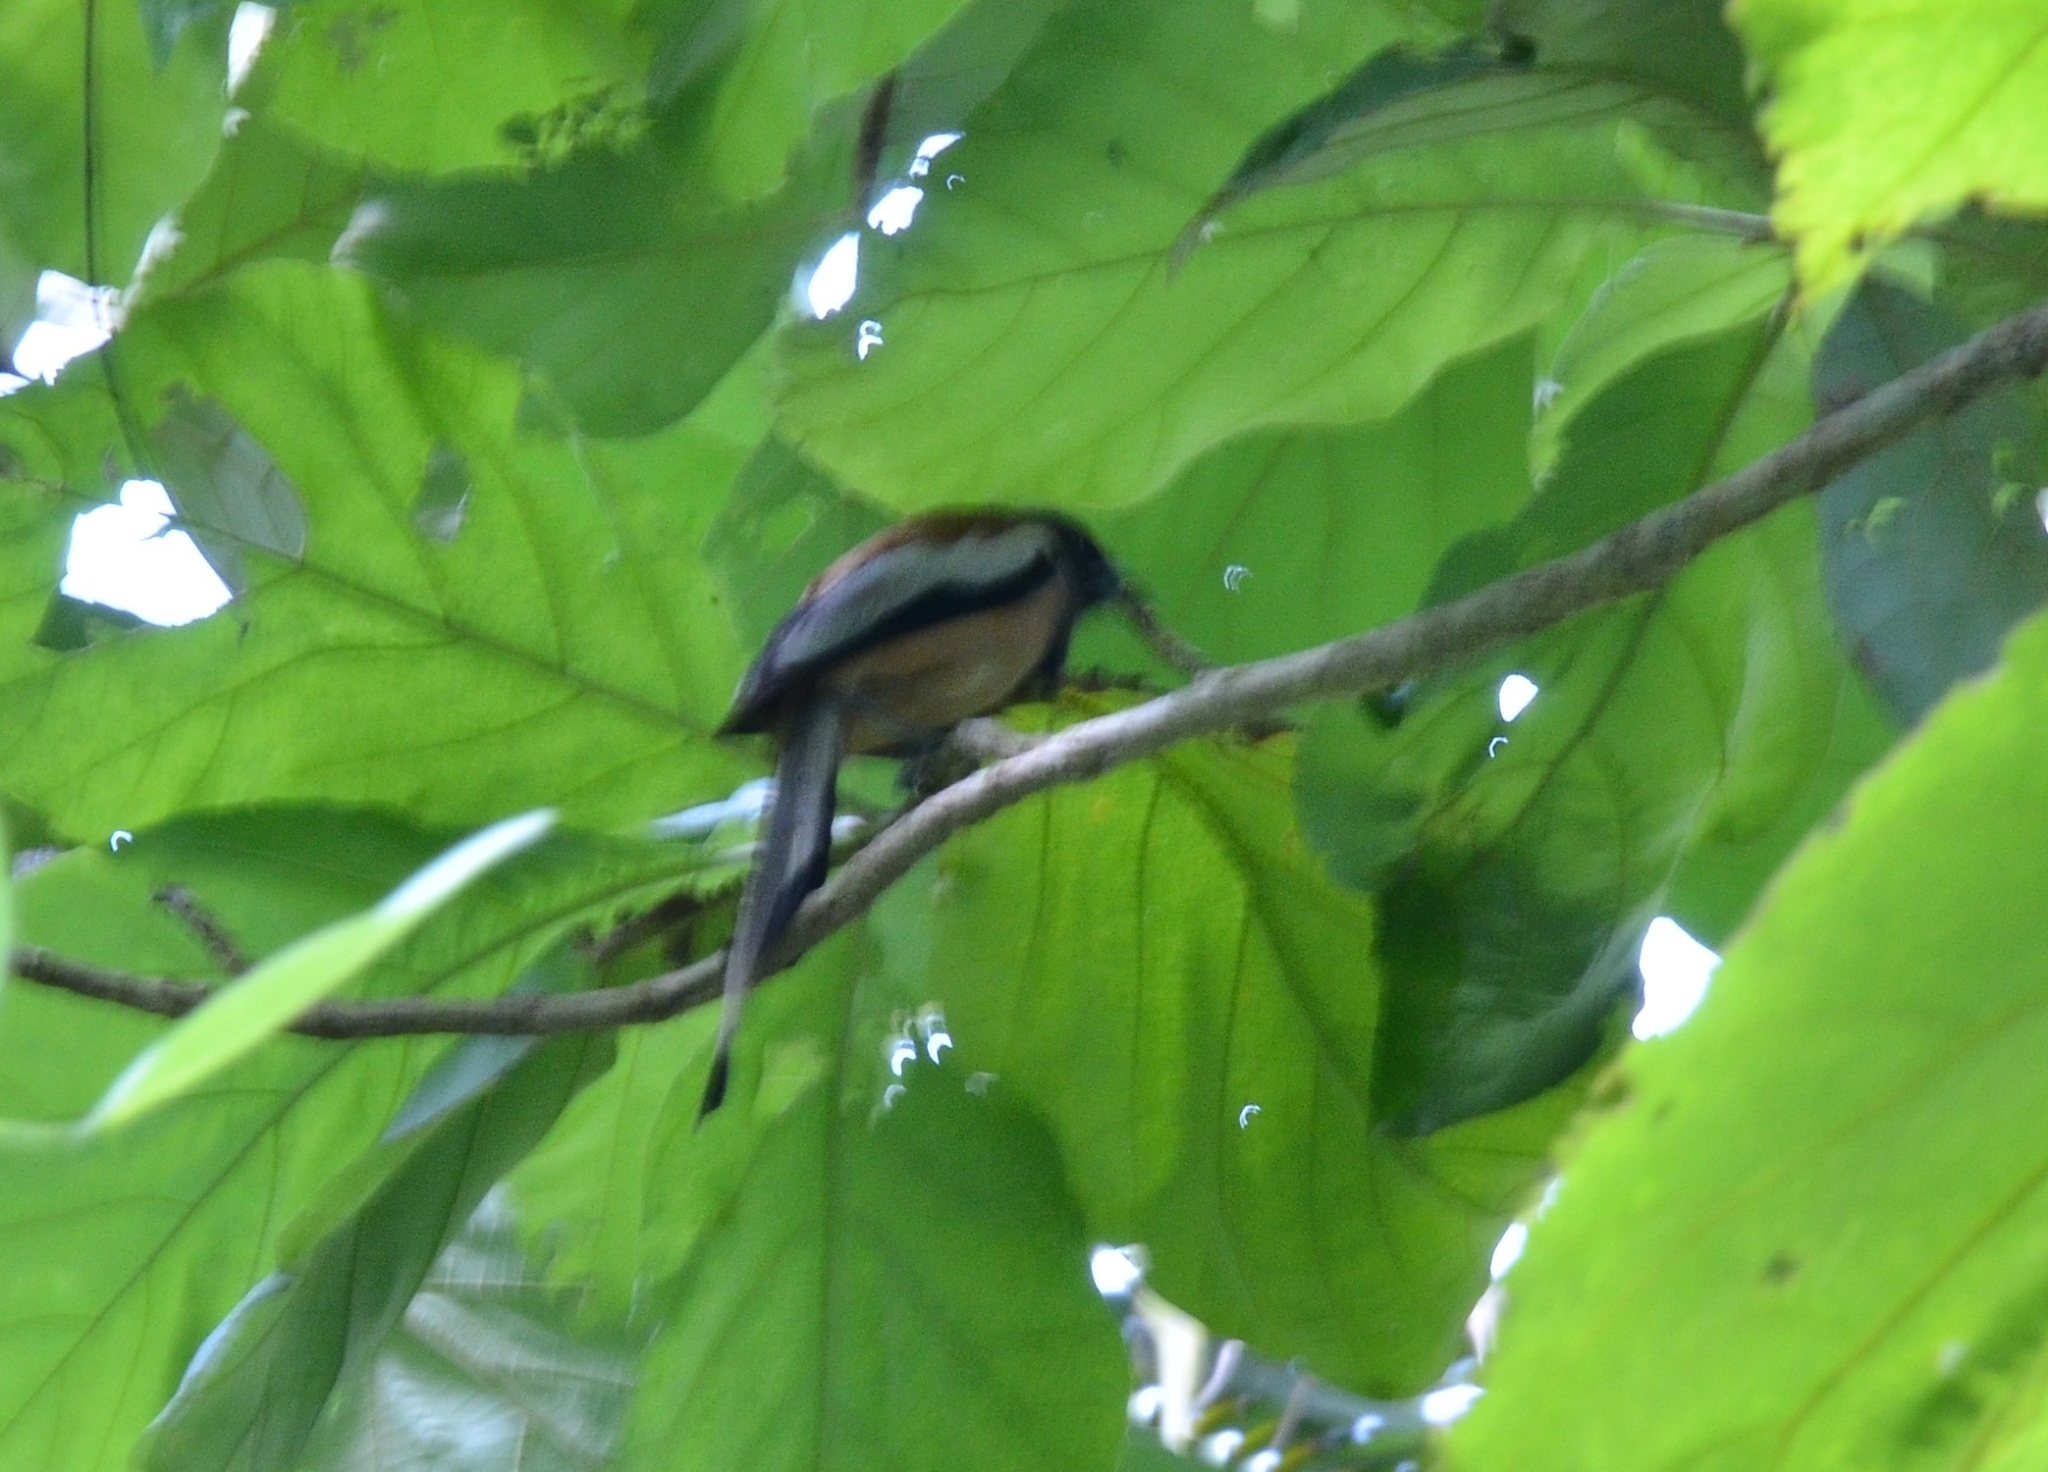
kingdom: Animalia
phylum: Chordata
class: Aves
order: Passeriformes
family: Corvidae
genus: Dendrocitta
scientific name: Dendrocitta vagabunda
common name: Rufous treepie
